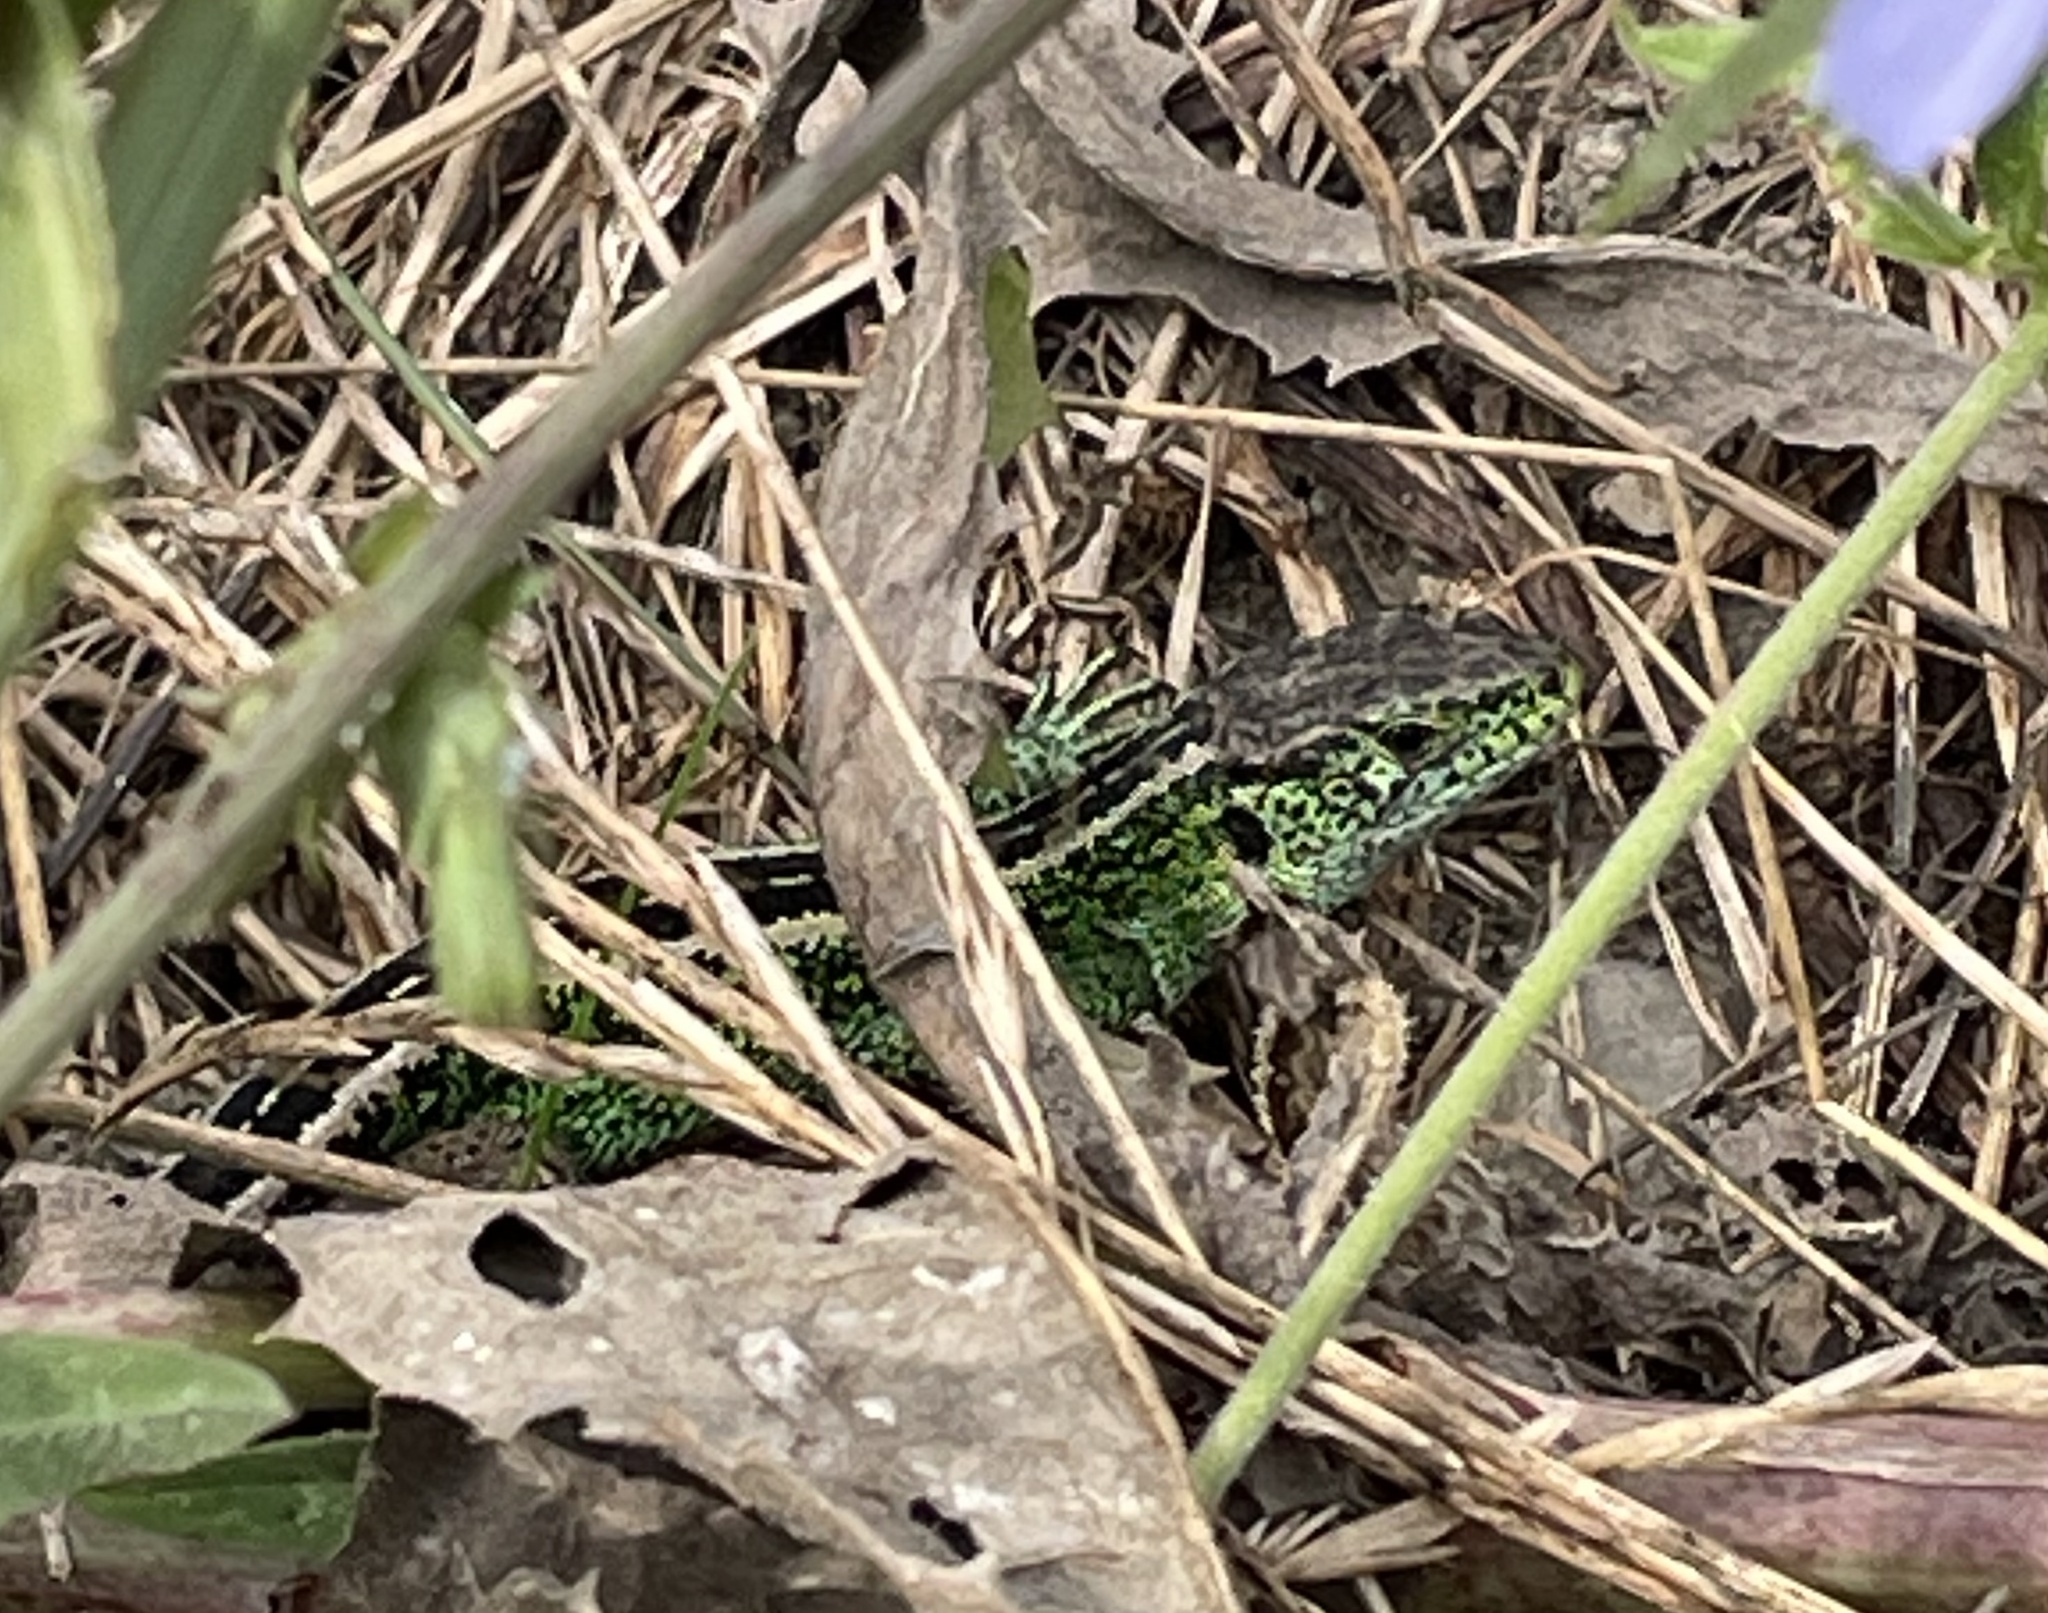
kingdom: Animalia
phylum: Chordata
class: Squamata
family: Lacertidae
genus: Lacerta
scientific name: Lacerta agilis
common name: Sand lizard
